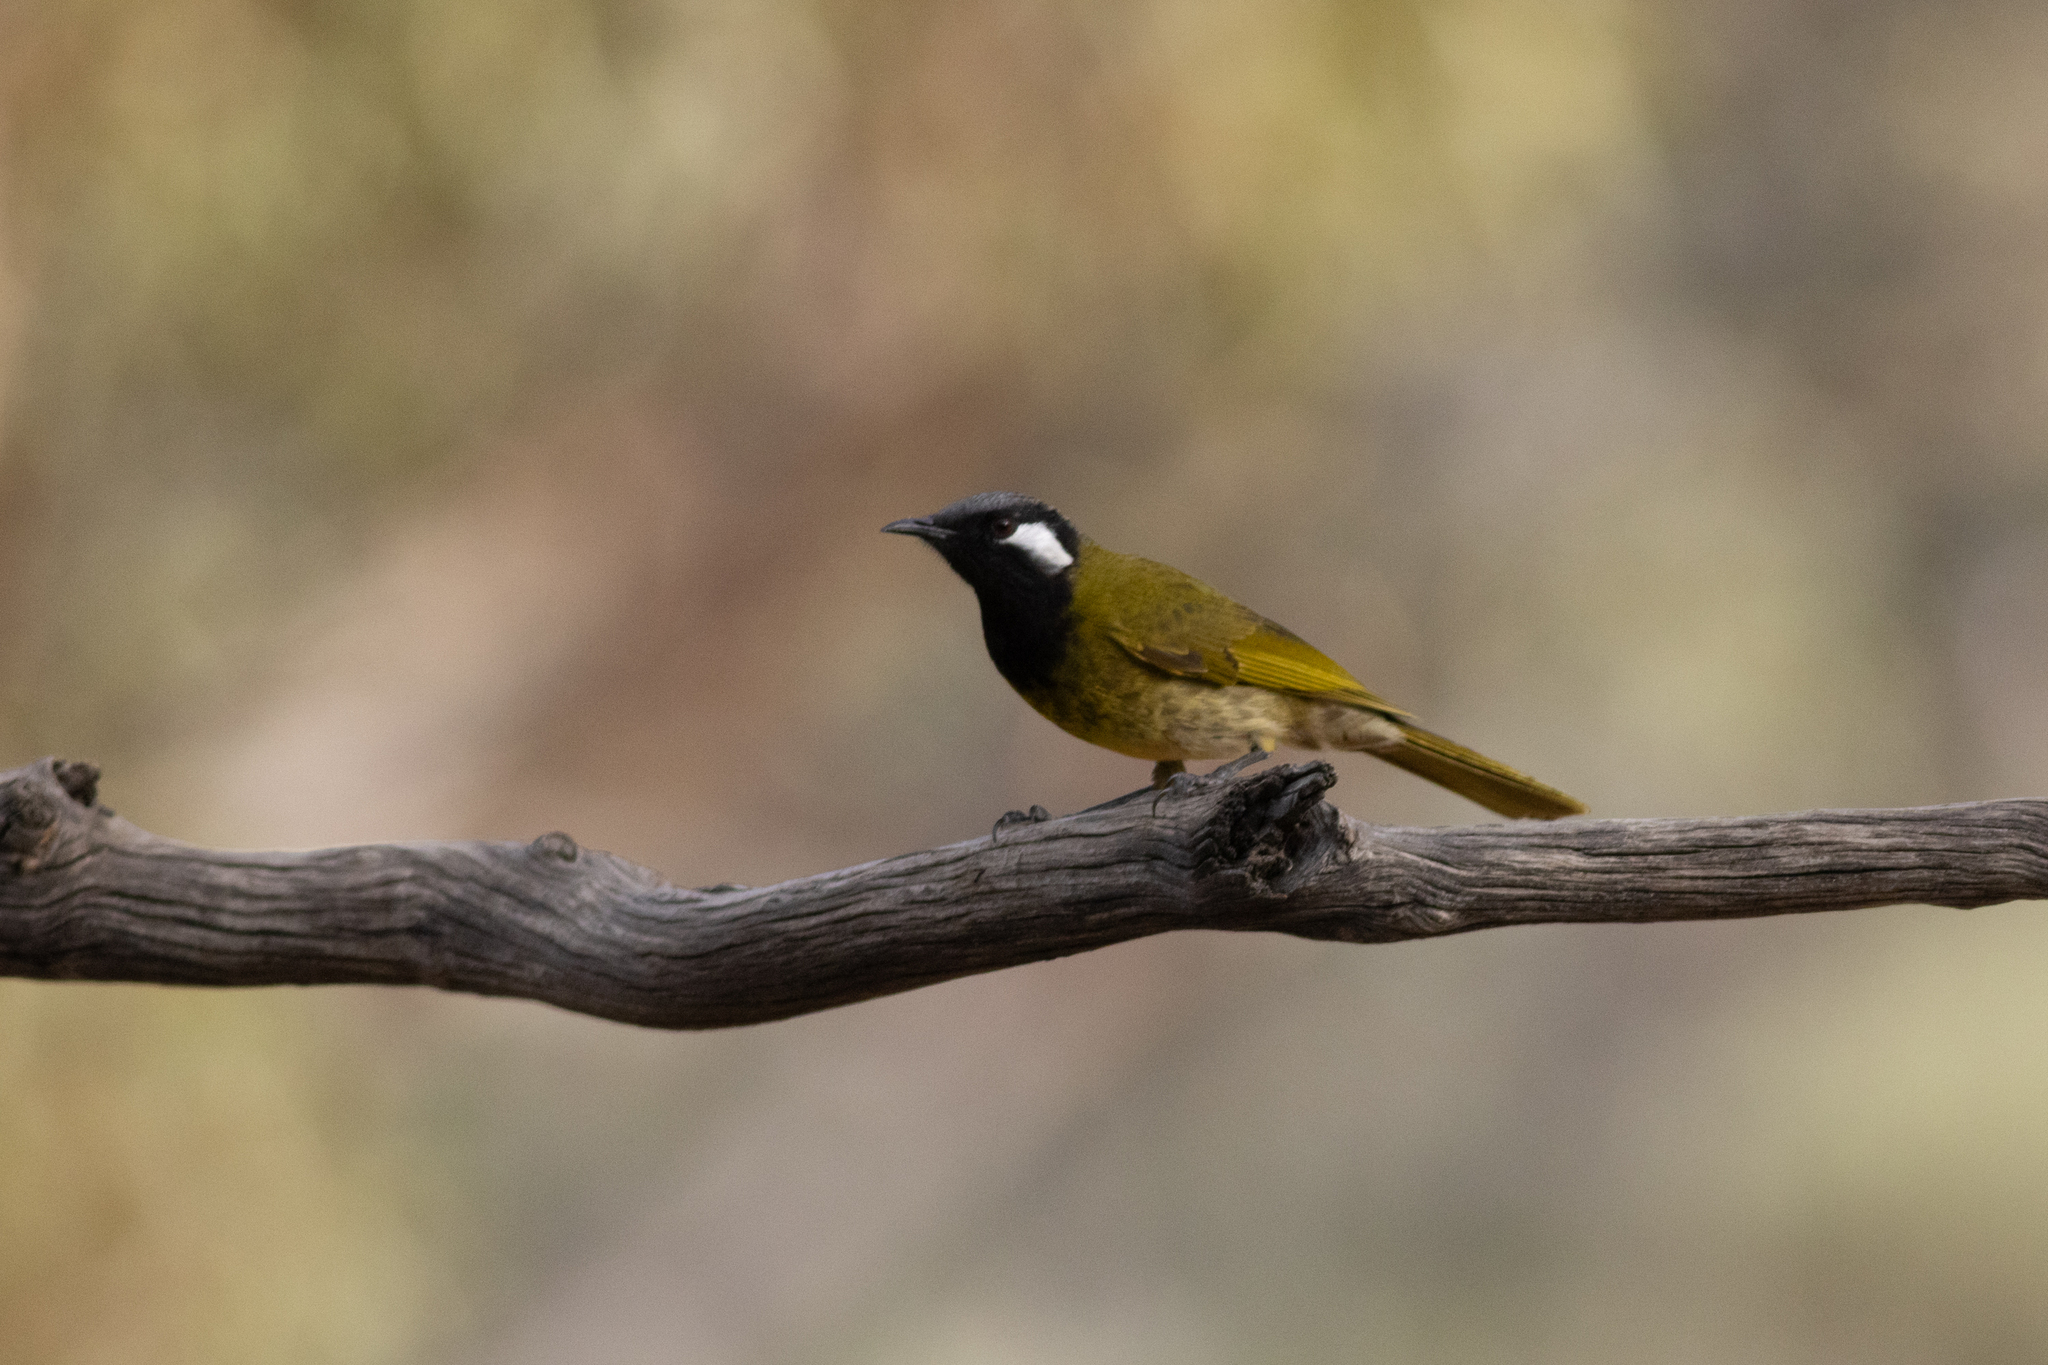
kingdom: Animalia
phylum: Chordata
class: Aves
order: Passeriformes
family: Meliphagidae
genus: Nesoptilotis
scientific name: Nesoptilotis leucotis
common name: White-eared honeyeater
